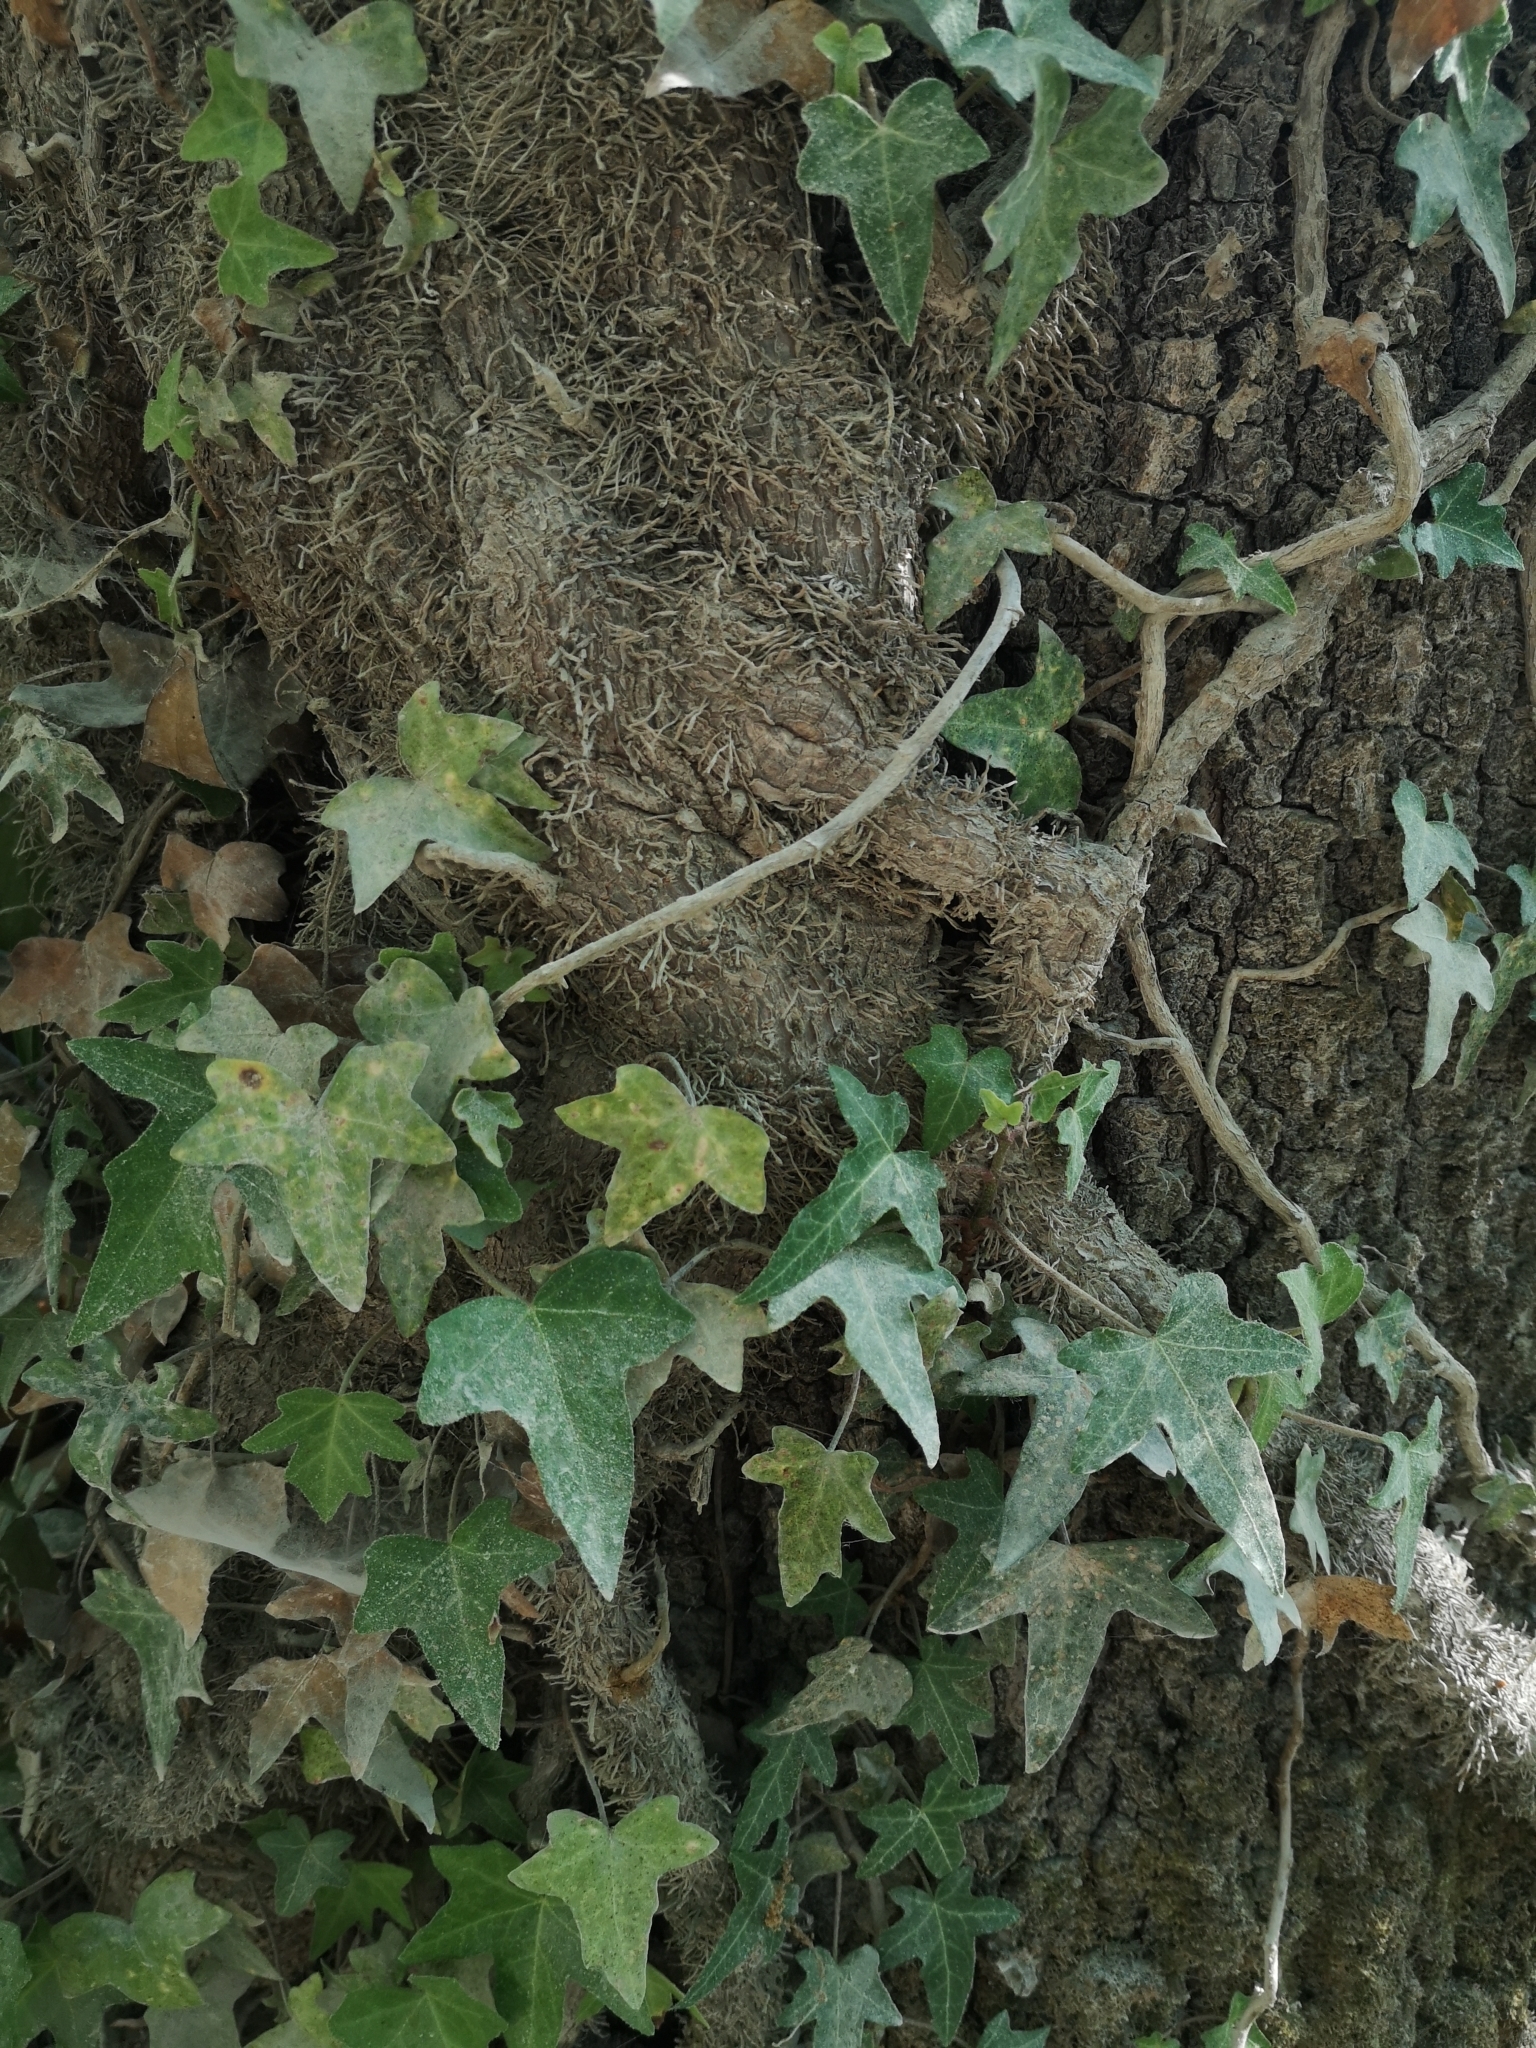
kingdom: Plantae
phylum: Tracheophyta
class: Magnoliopsida
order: Apiales
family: Araliaceae
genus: Hedera
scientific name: Hedera helix
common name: Ivy
